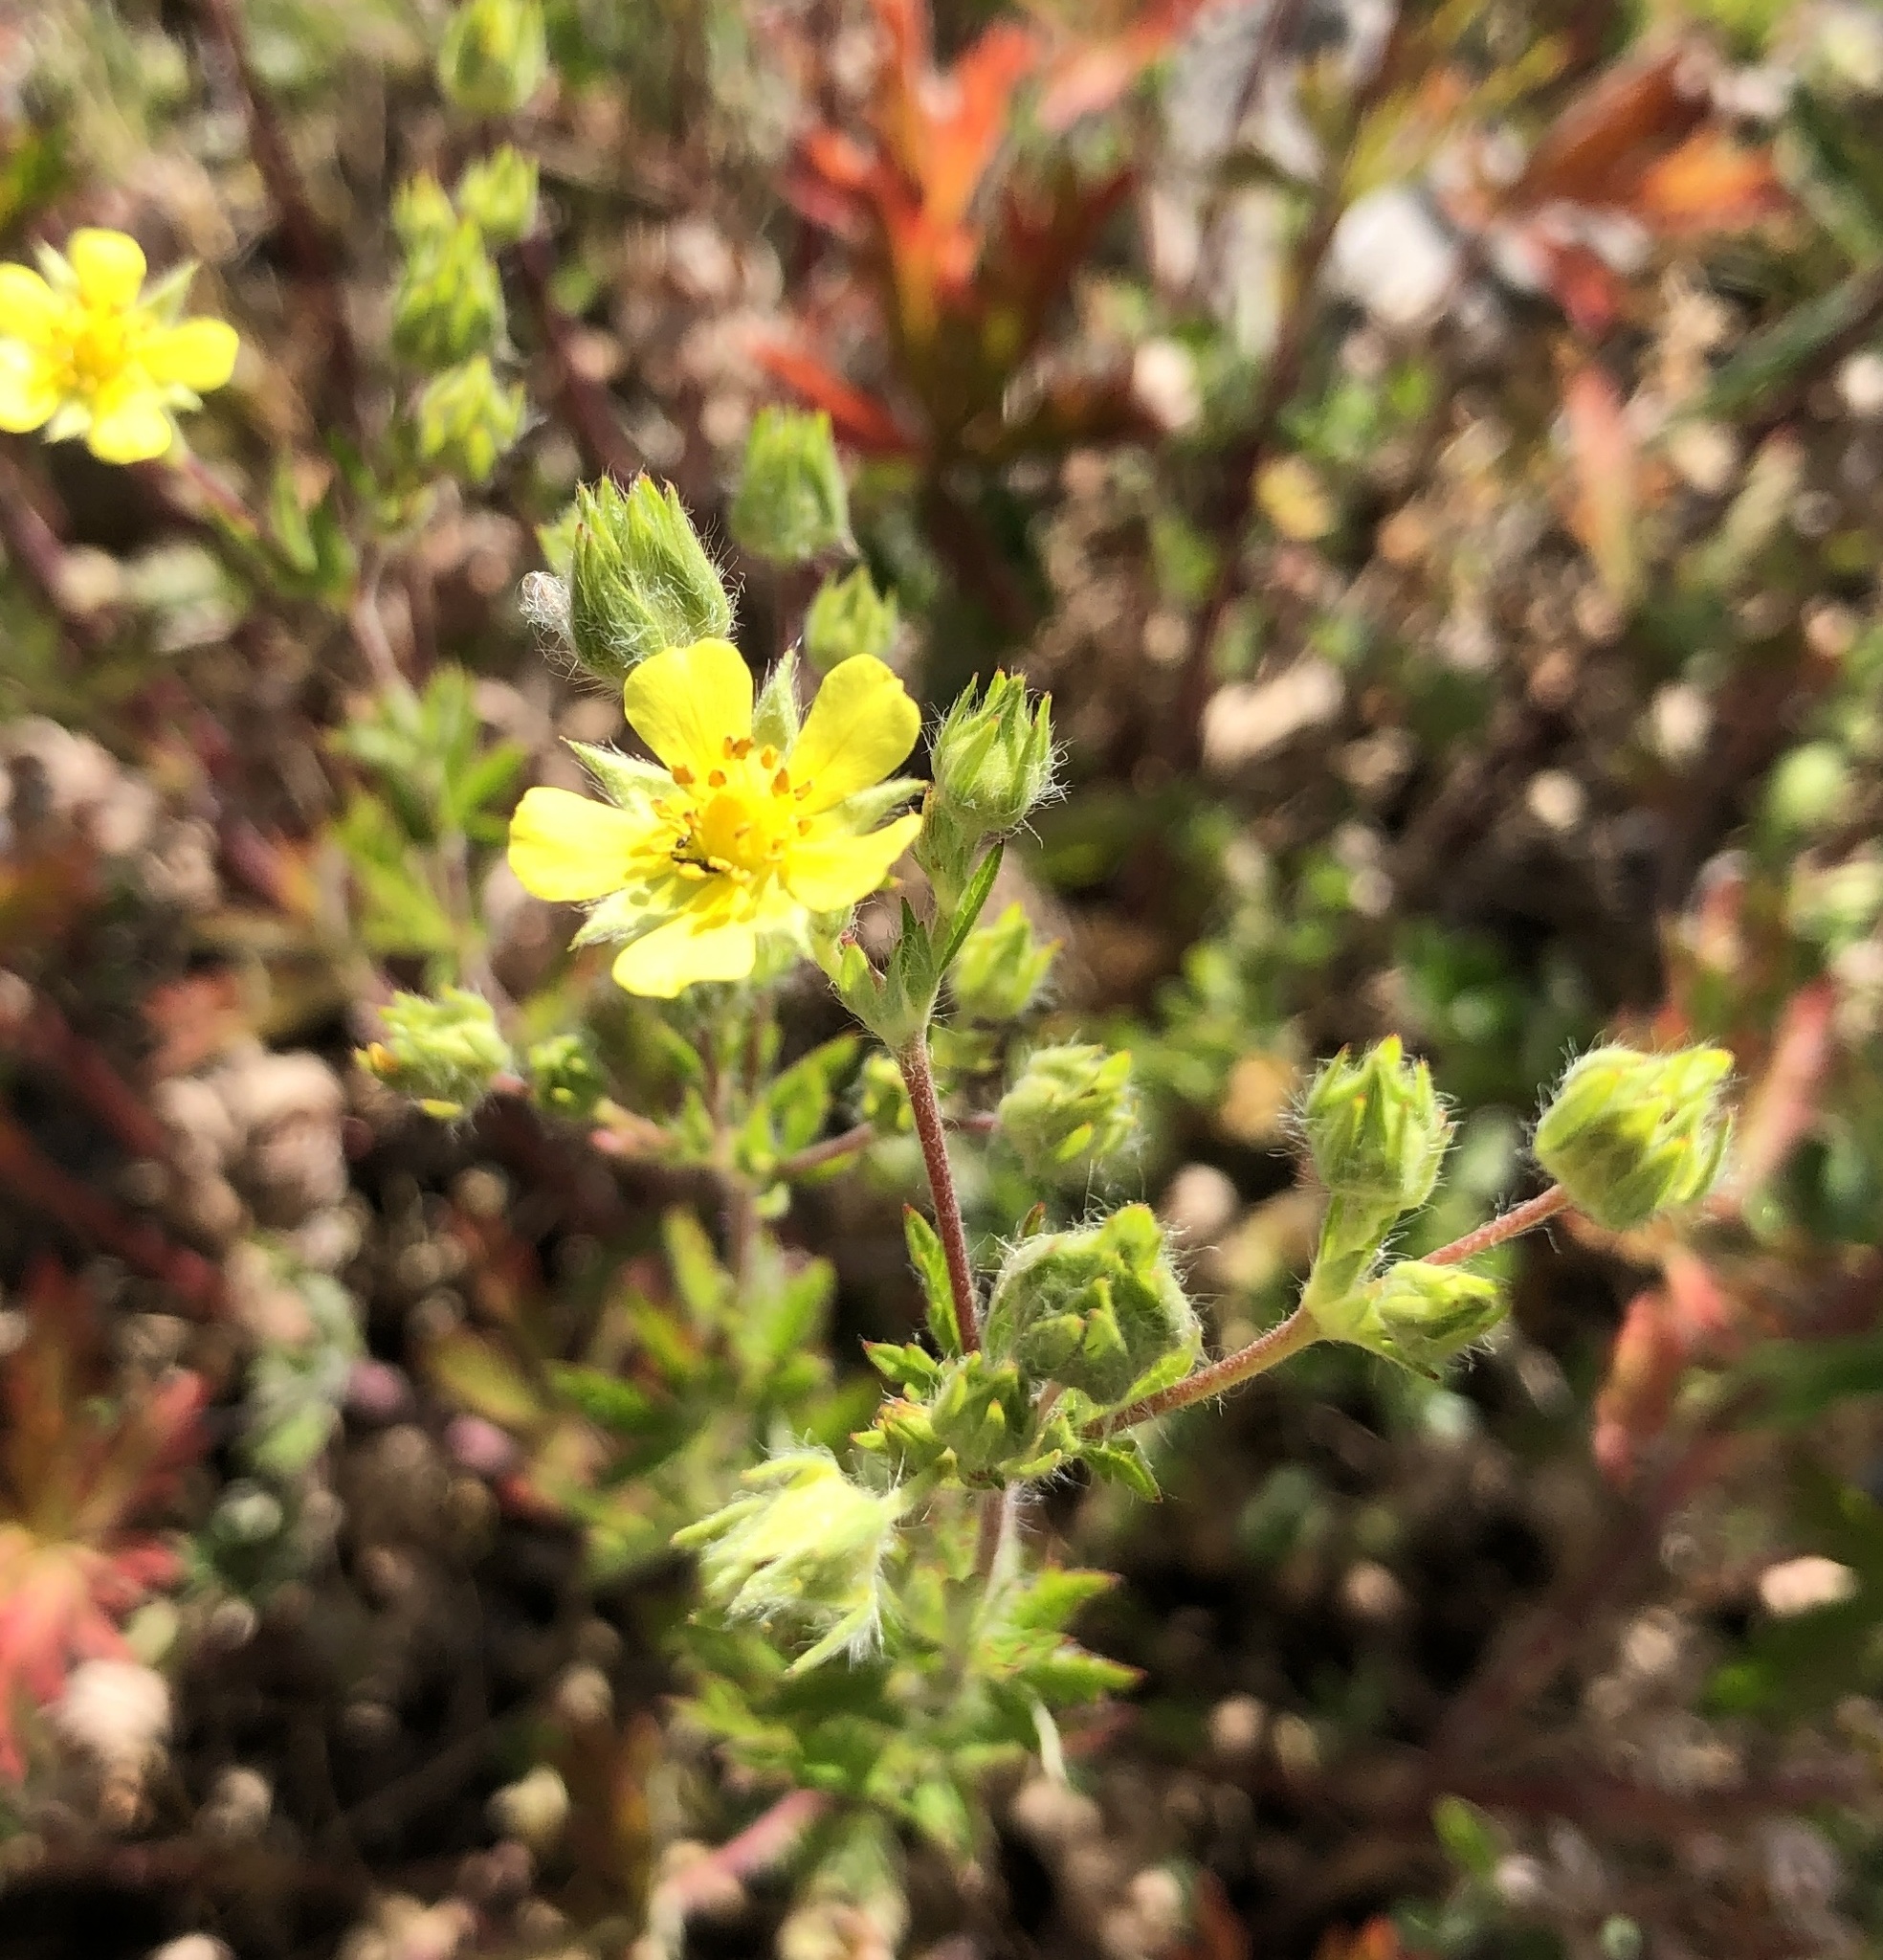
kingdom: Plantae
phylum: Tracheophyta
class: Magnoliopsida
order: Rosales
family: Rosaceae
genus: Potentilla
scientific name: Potentilla argentea
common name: Hoary cinquefoil
